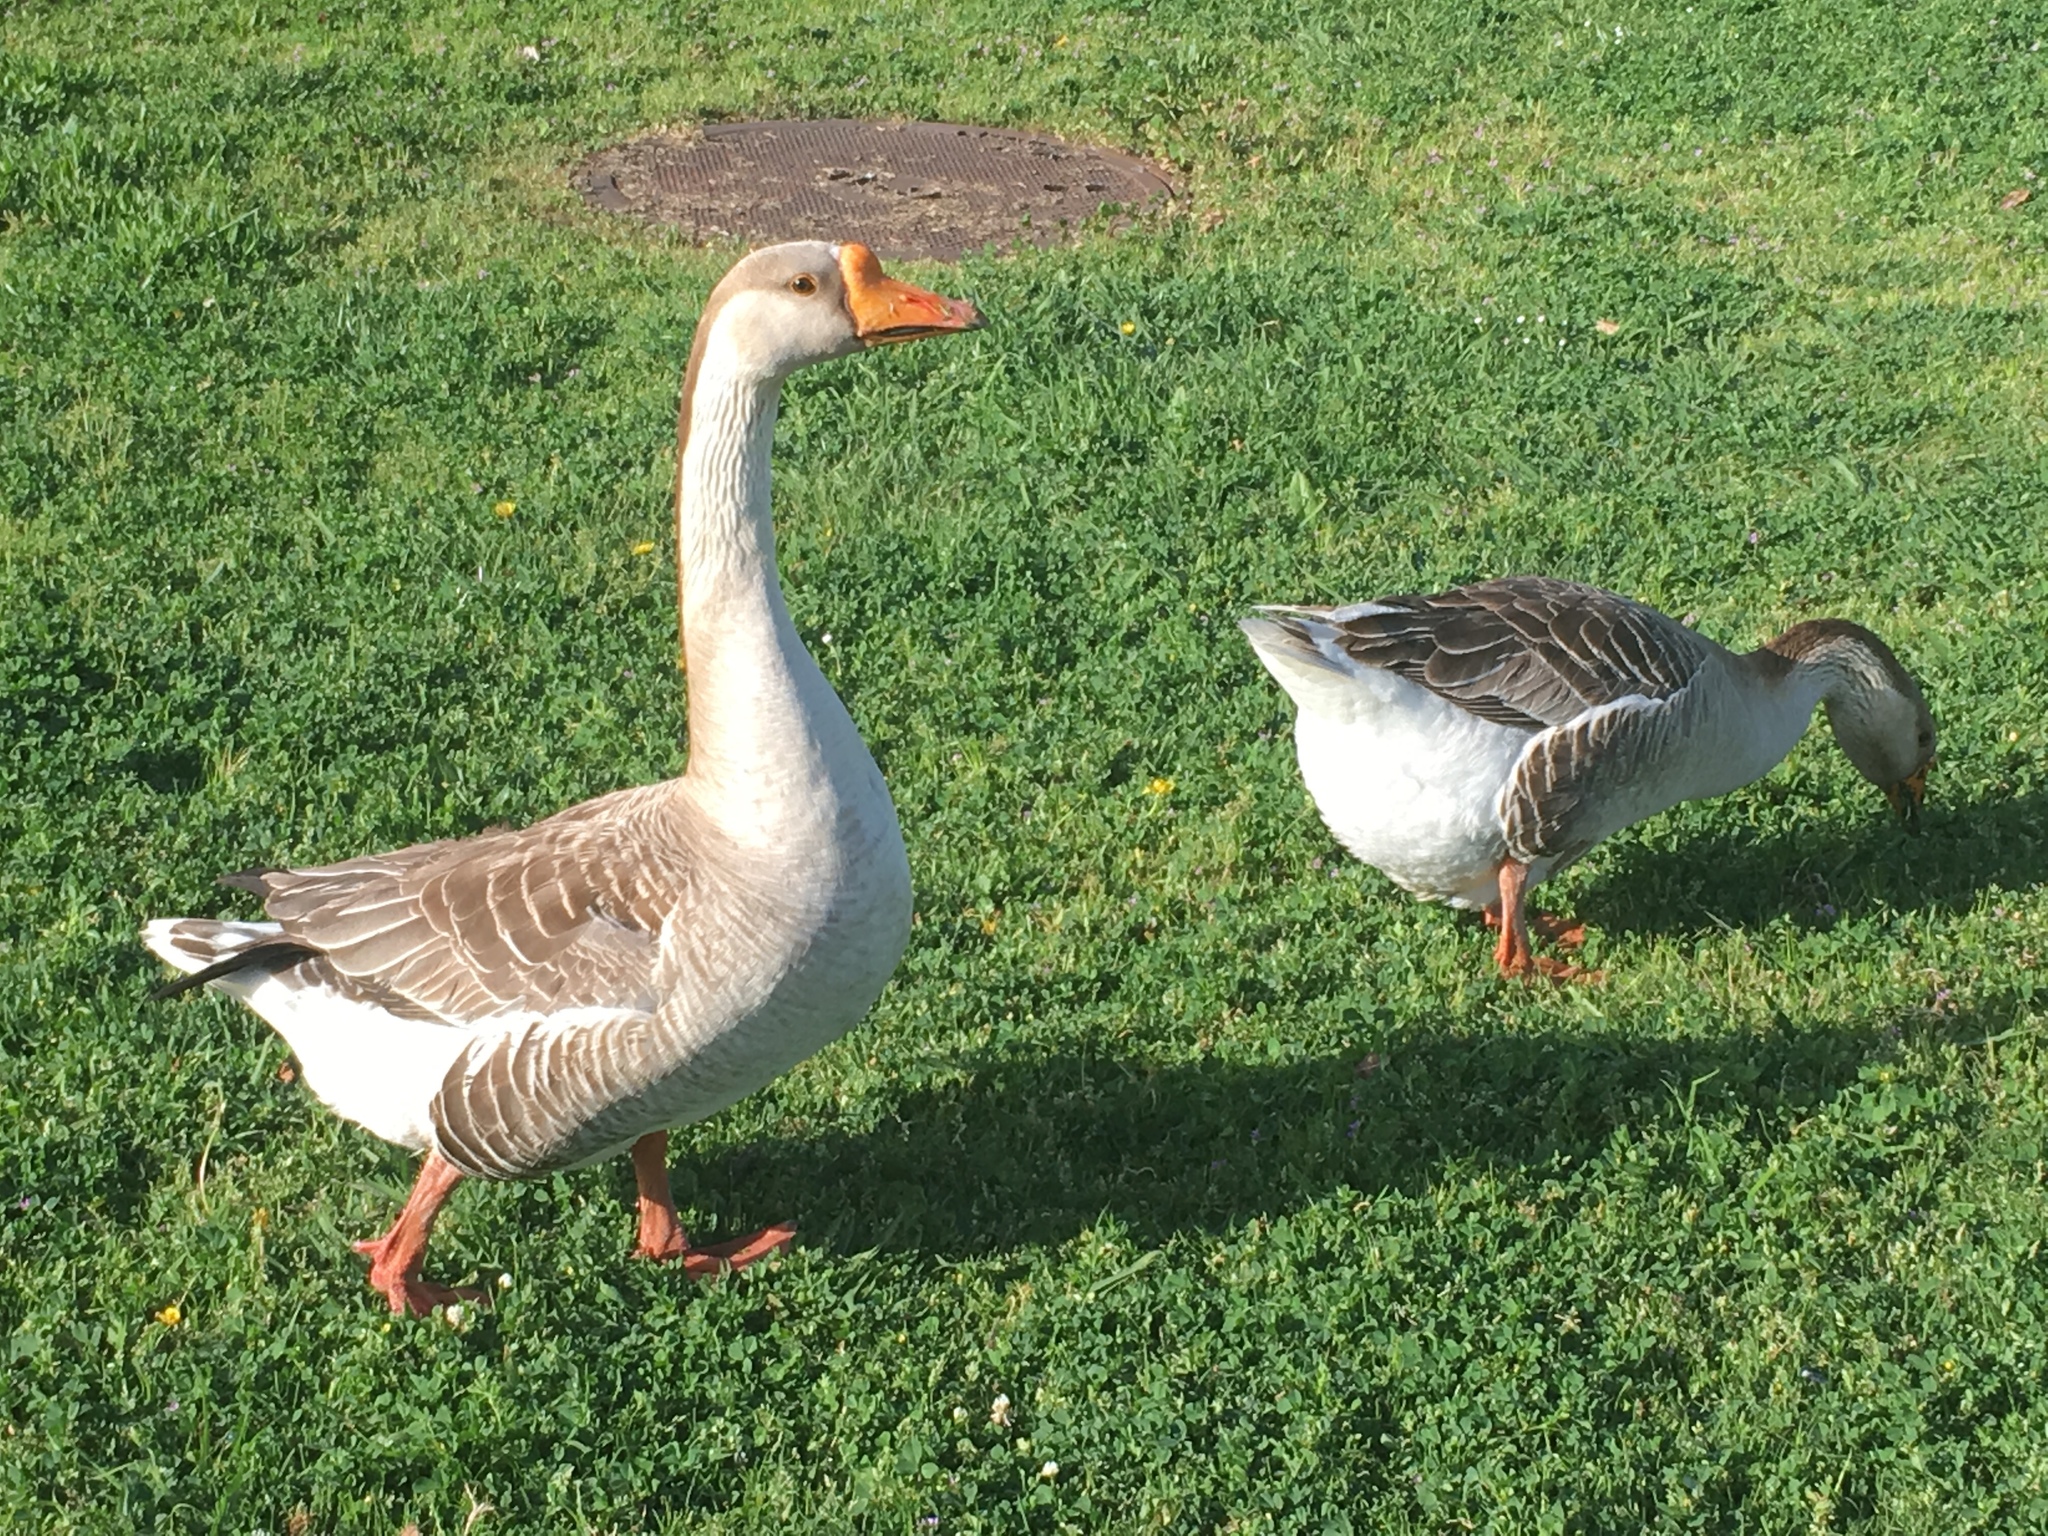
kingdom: Animalia
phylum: Chordata
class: Aves
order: Anseriformes
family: Anatidae
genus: Anser
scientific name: Anser
